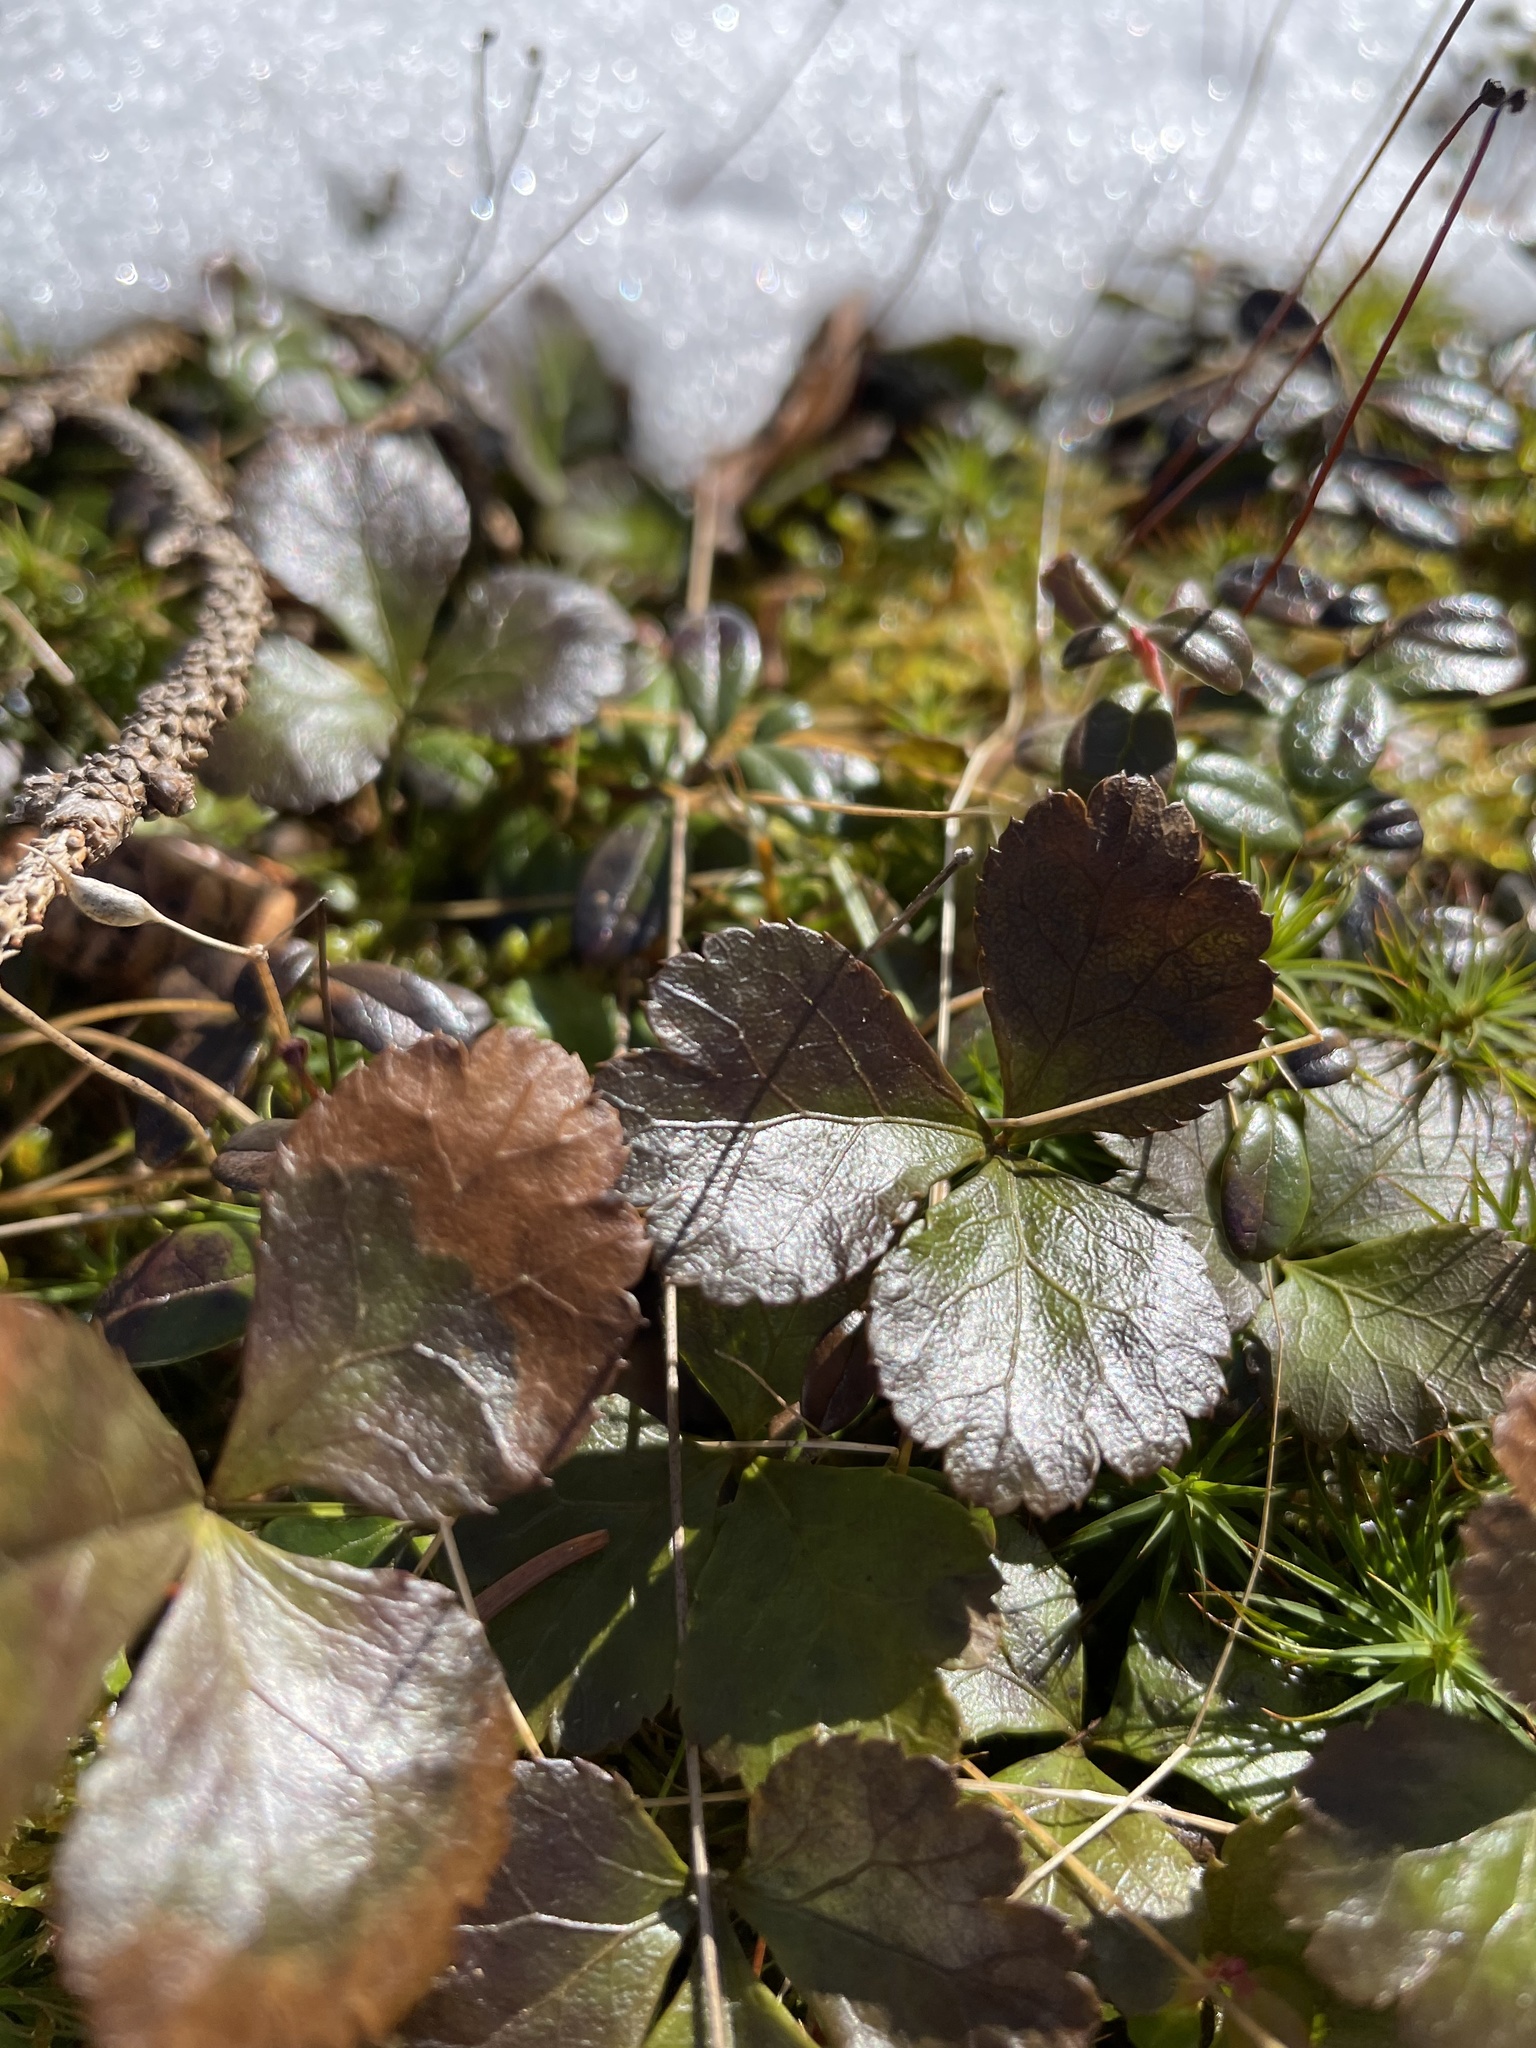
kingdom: Plantae
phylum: Tracheophyta
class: Magnoliopsida
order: Ranunculales
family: Ranunculaceae
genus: Coptis
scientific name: Coptis trifolia
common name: Canker-root
